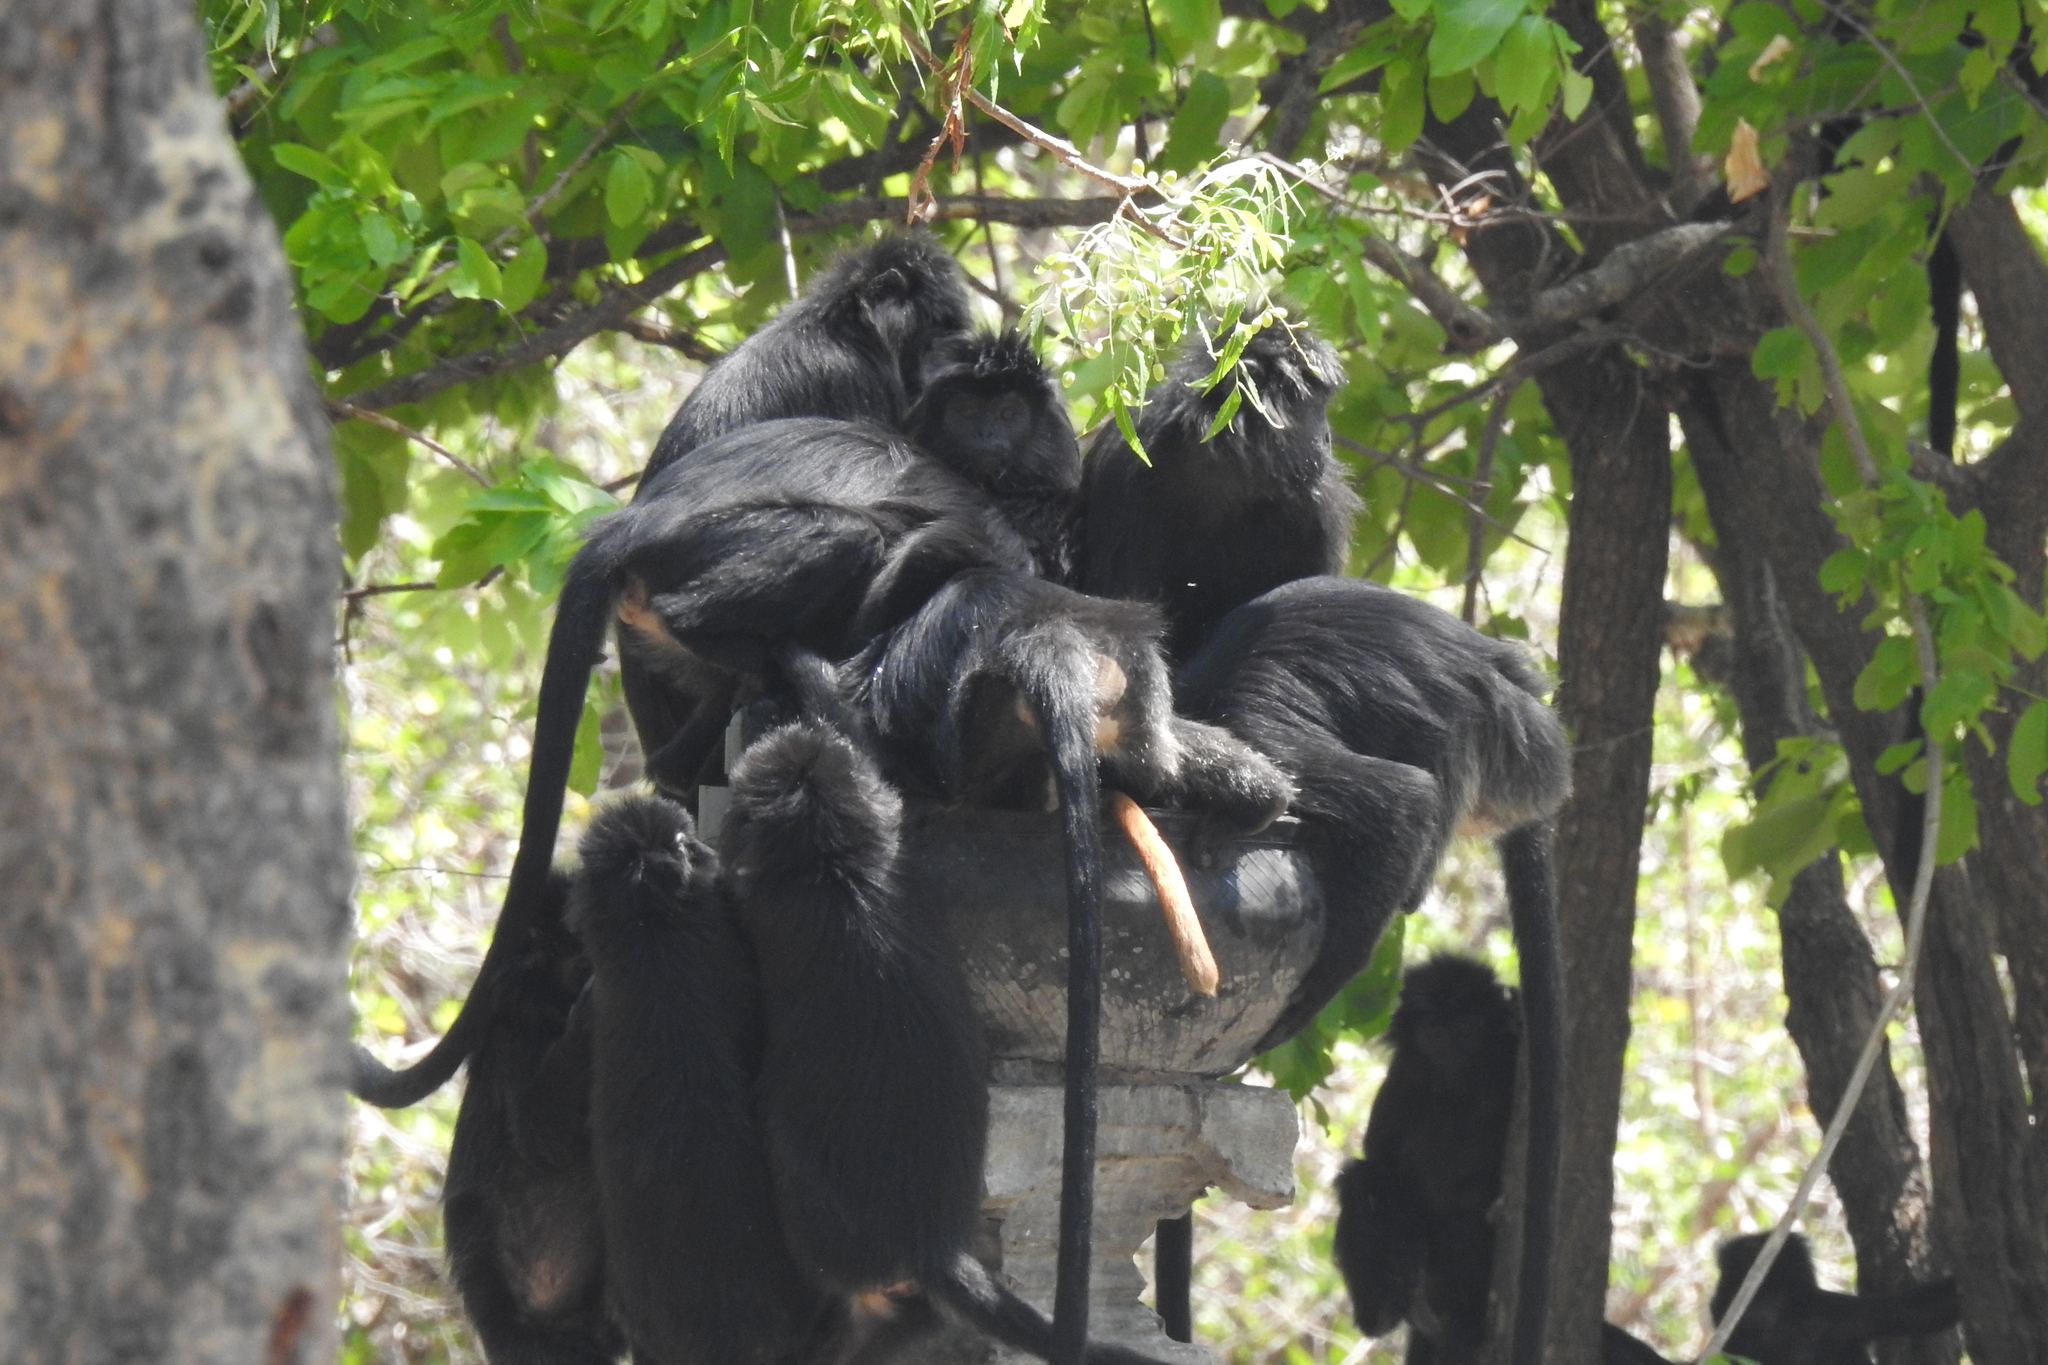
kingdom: Animalia
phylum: Chordata
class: Mammalia
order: Primates
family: Cercopithecidae
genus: Trachypithecus
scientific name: Trachypithecus auratus
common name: Javan lutung
